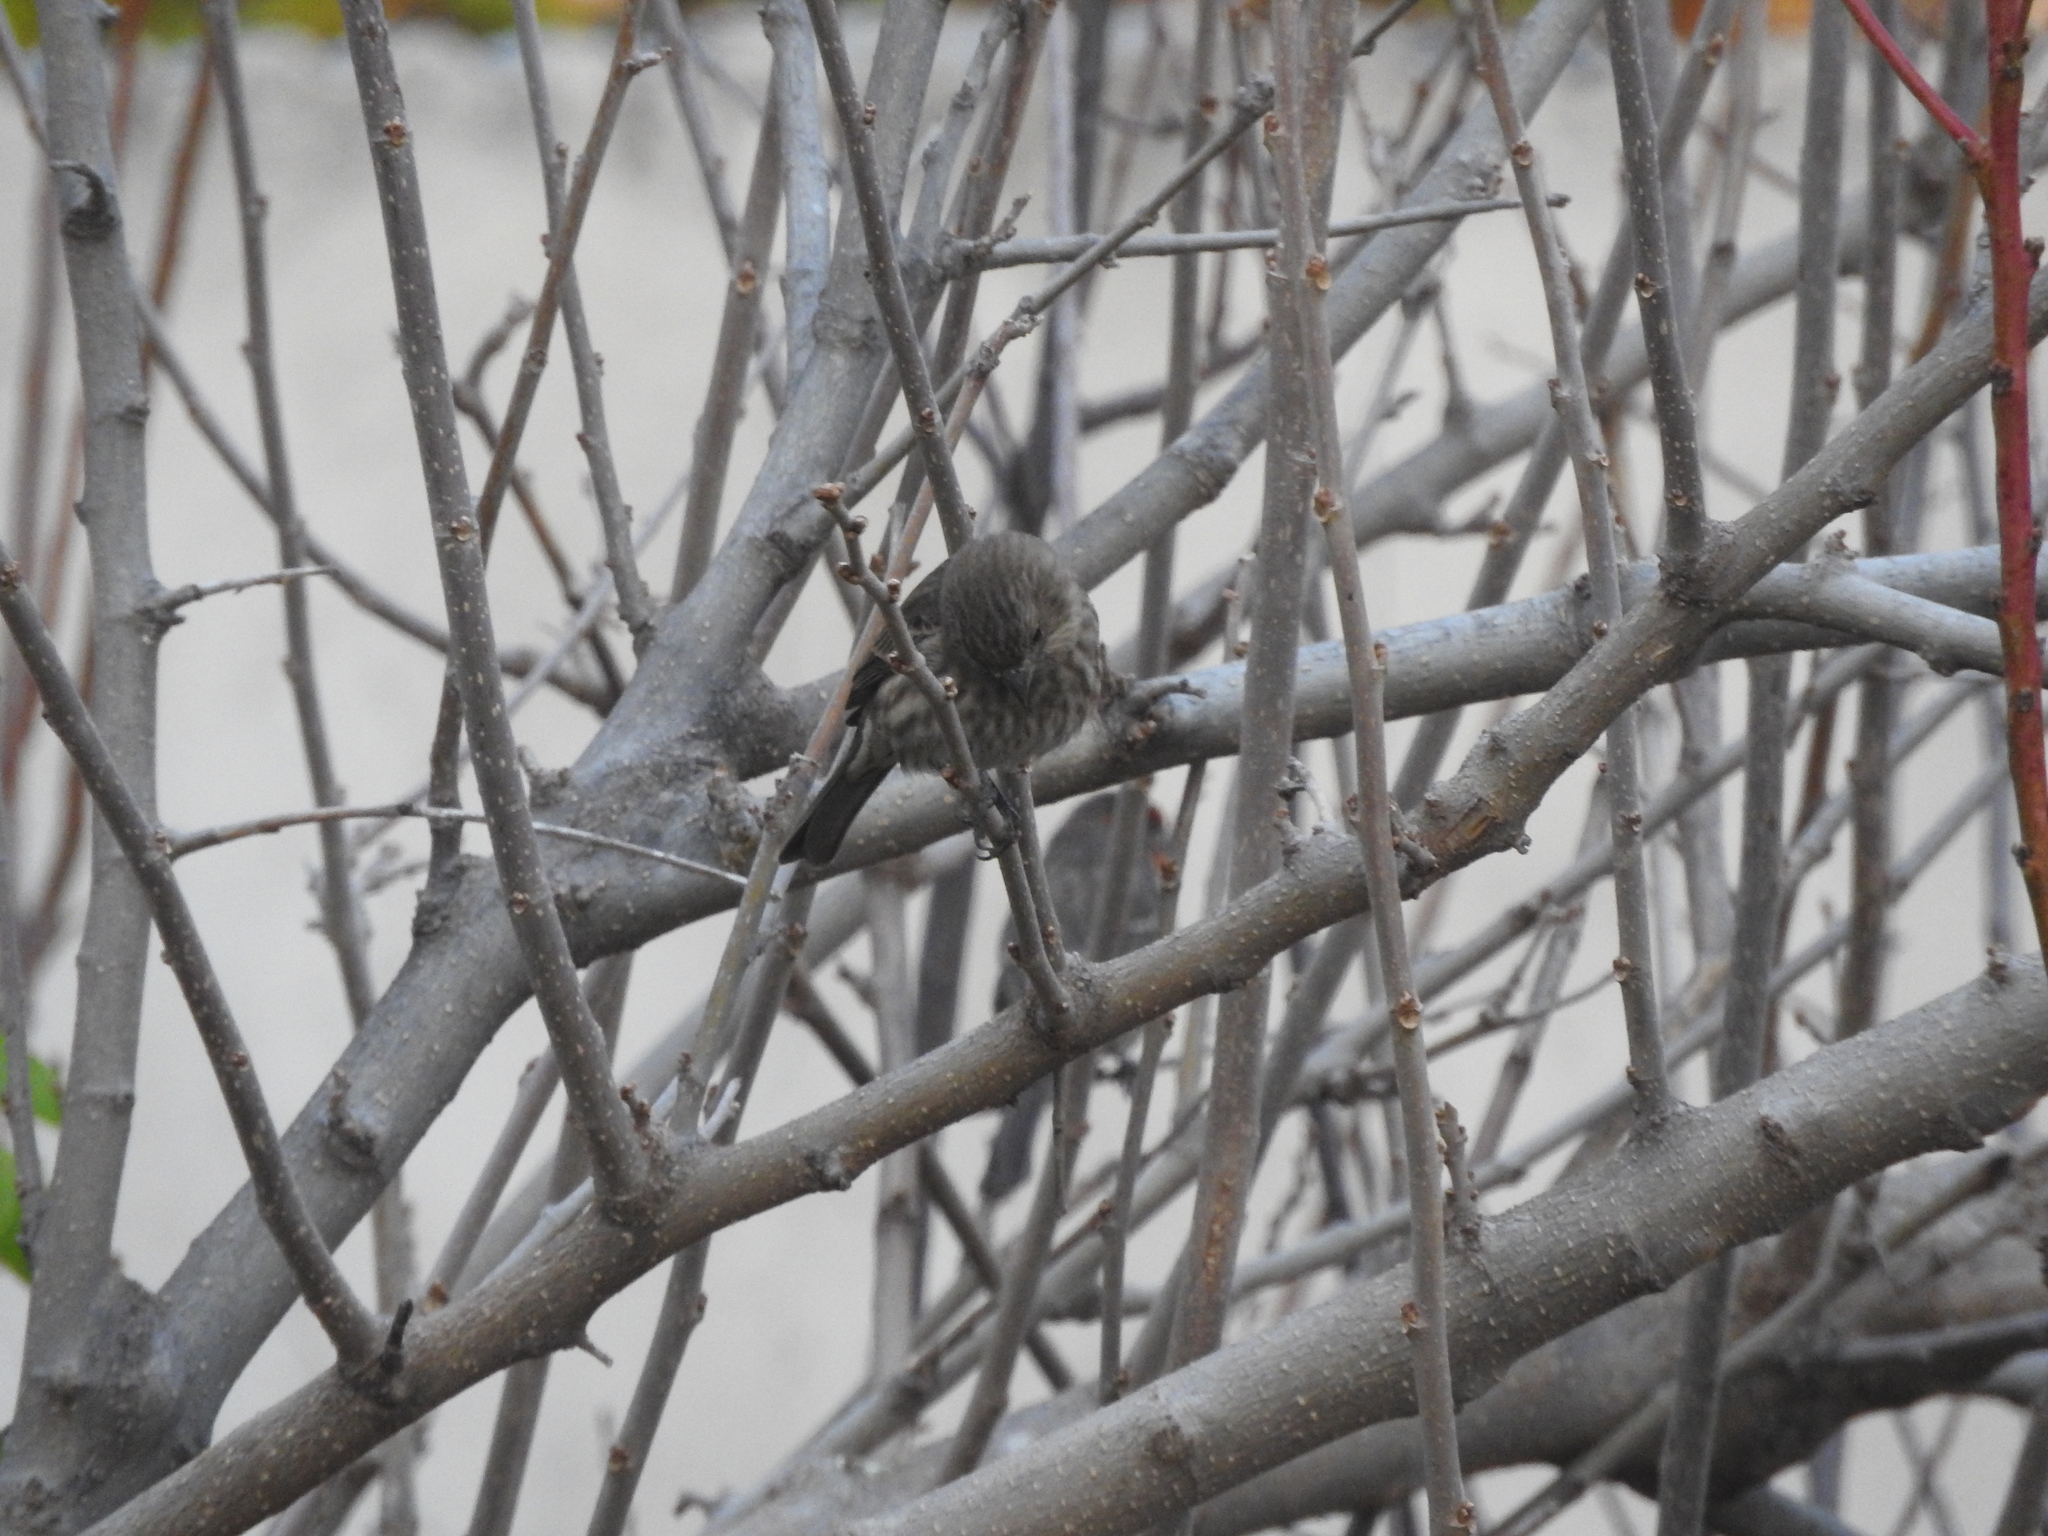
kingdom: Animalia
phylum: Chordata
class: Aves
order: Passeriformes
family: Fringillidae
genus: Haemorhous
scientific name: Haemorhous mexicanus
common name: House finch
